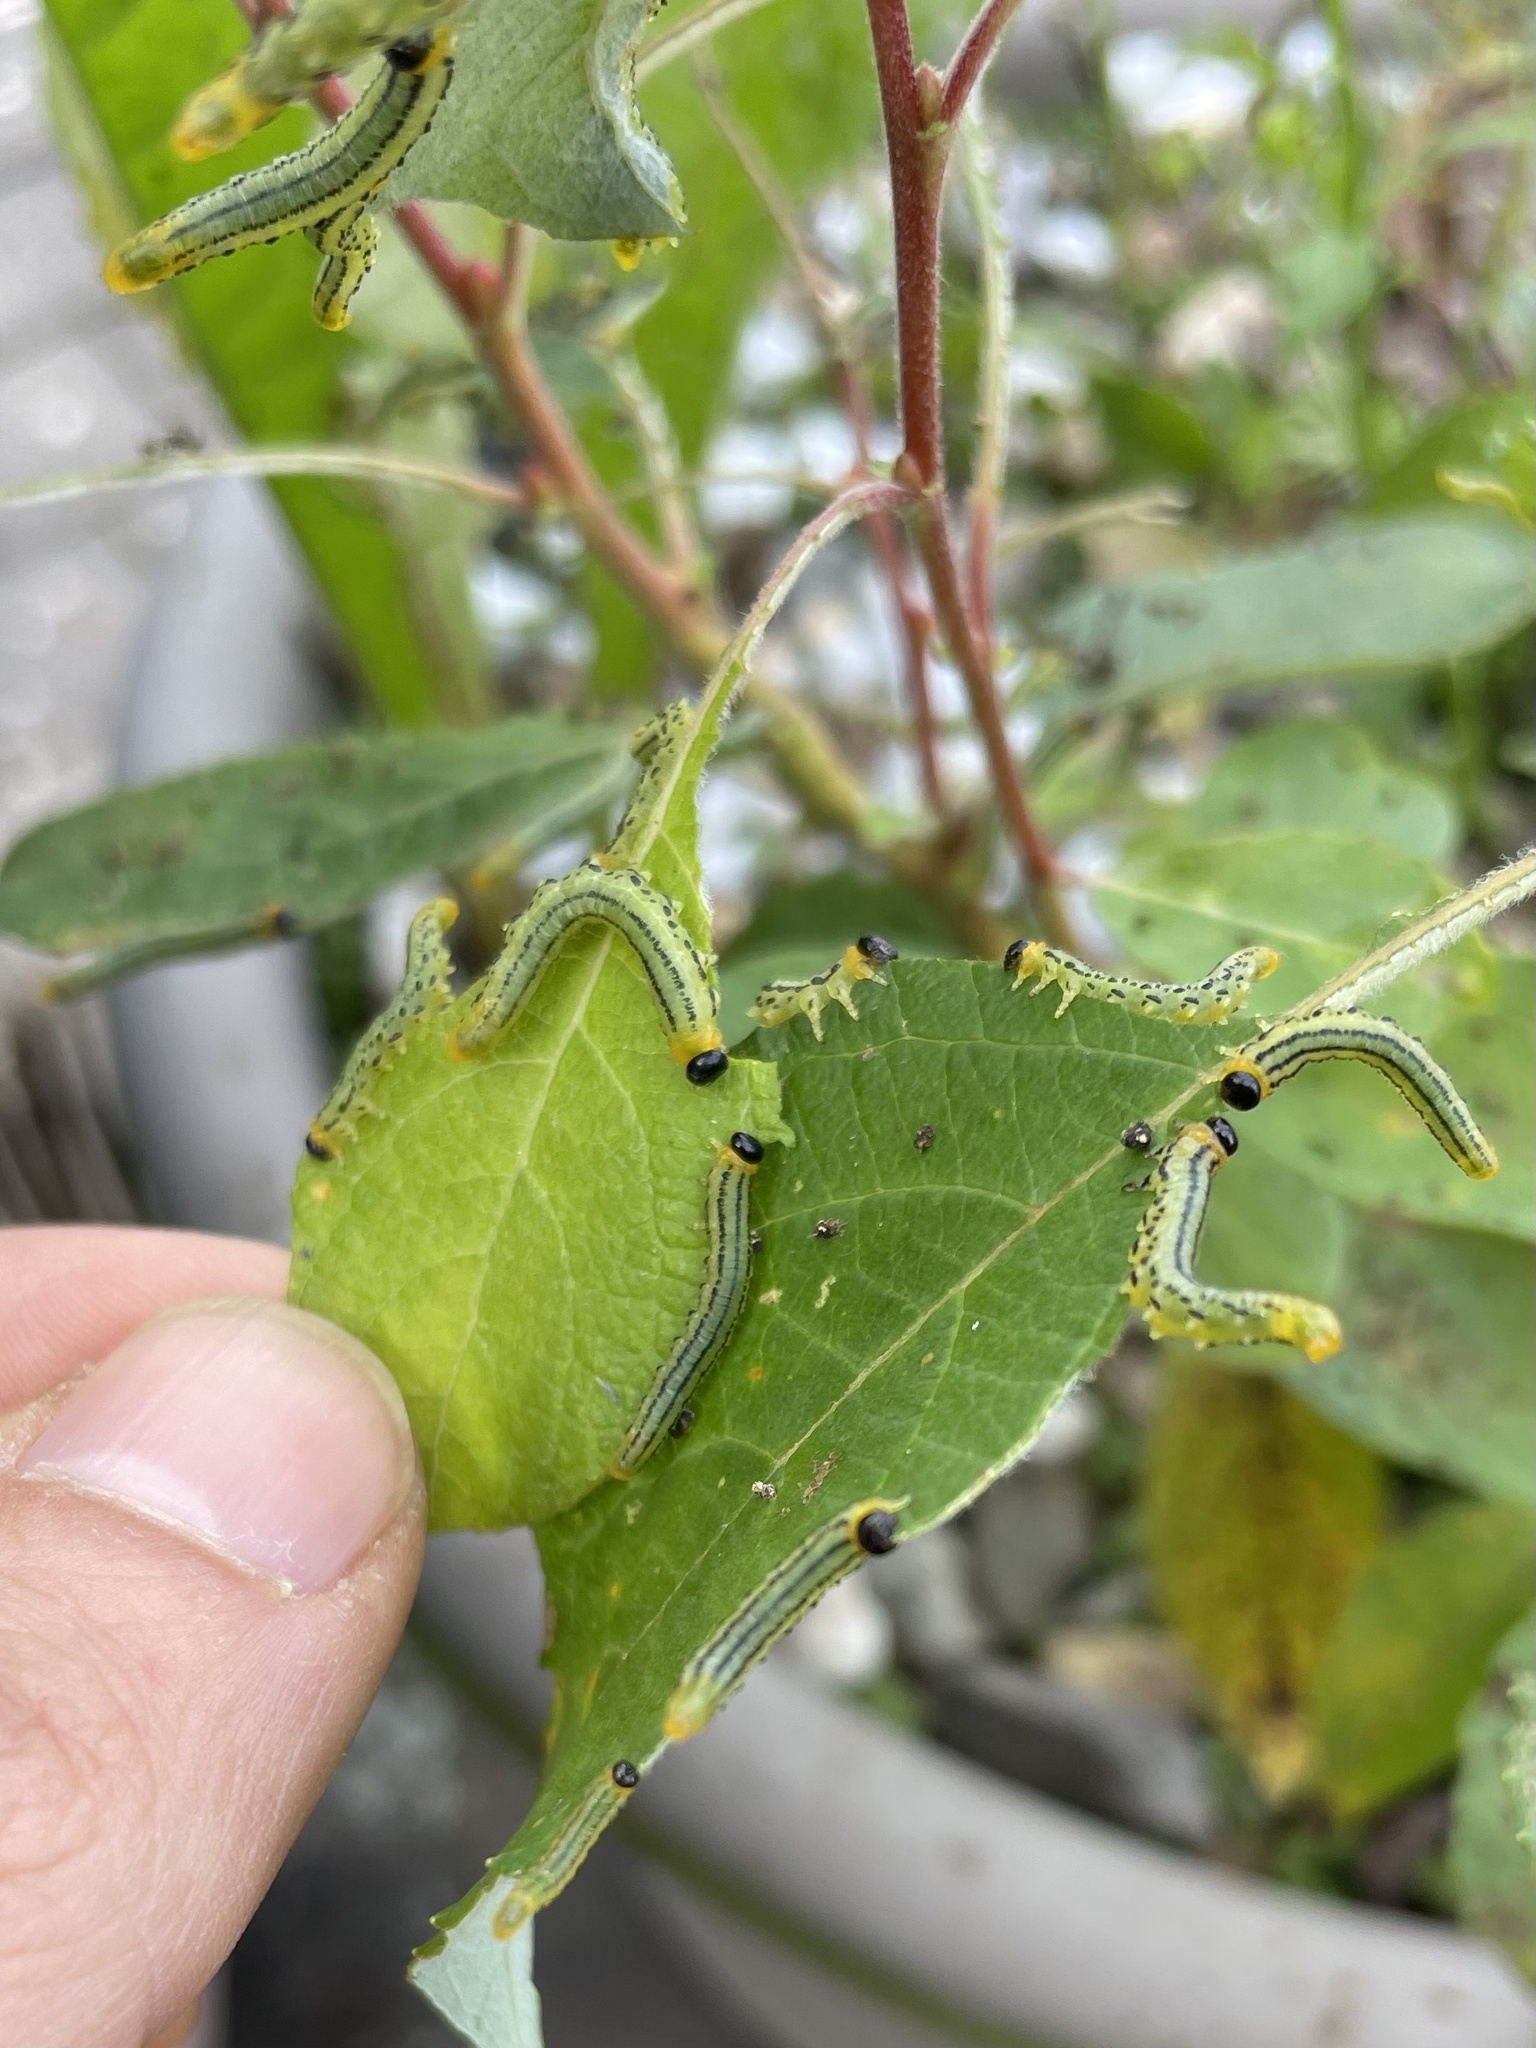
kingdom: Animalia
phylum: Arthropoda
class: Insecta
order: Hymenoptera
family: Tenthredinidae
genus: Nematus
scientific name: Nematus pavidus
